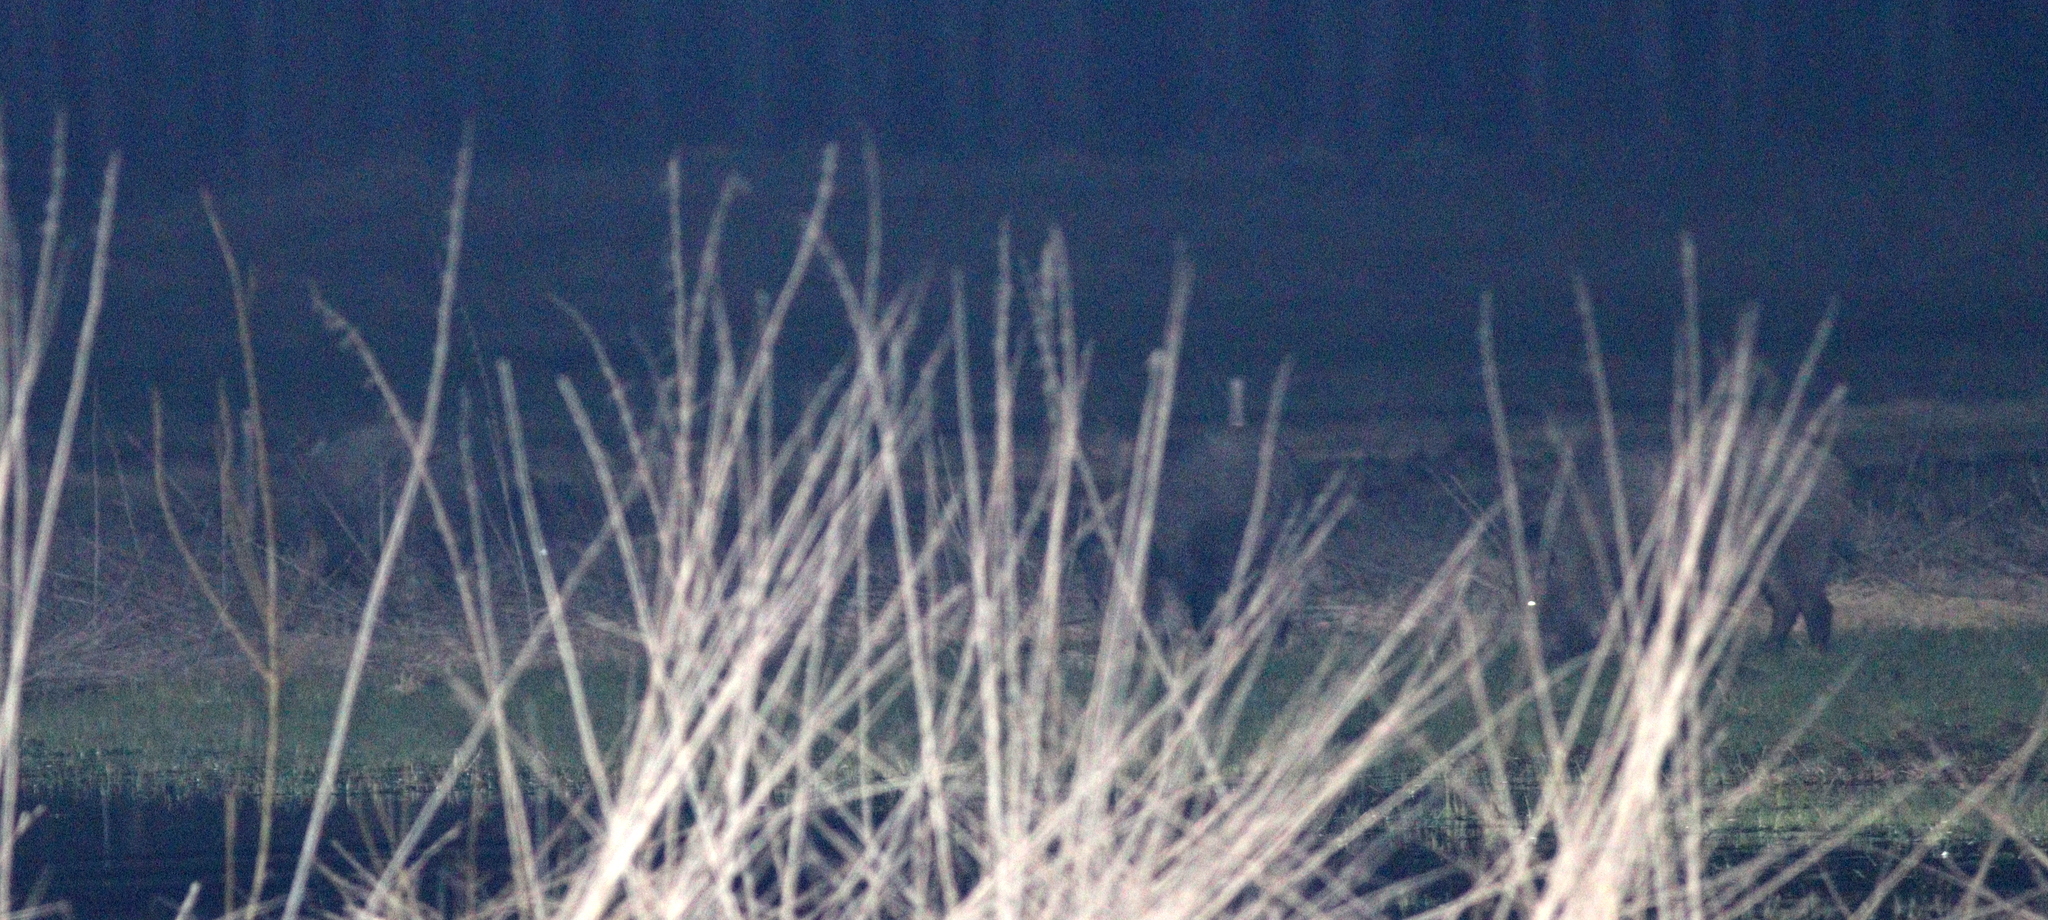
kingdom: Animalia
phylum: Chordata
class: Mammalia
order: Artiodactyla
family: Suidae
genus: Sus
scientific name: Sus scrofa
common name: Wild boar
